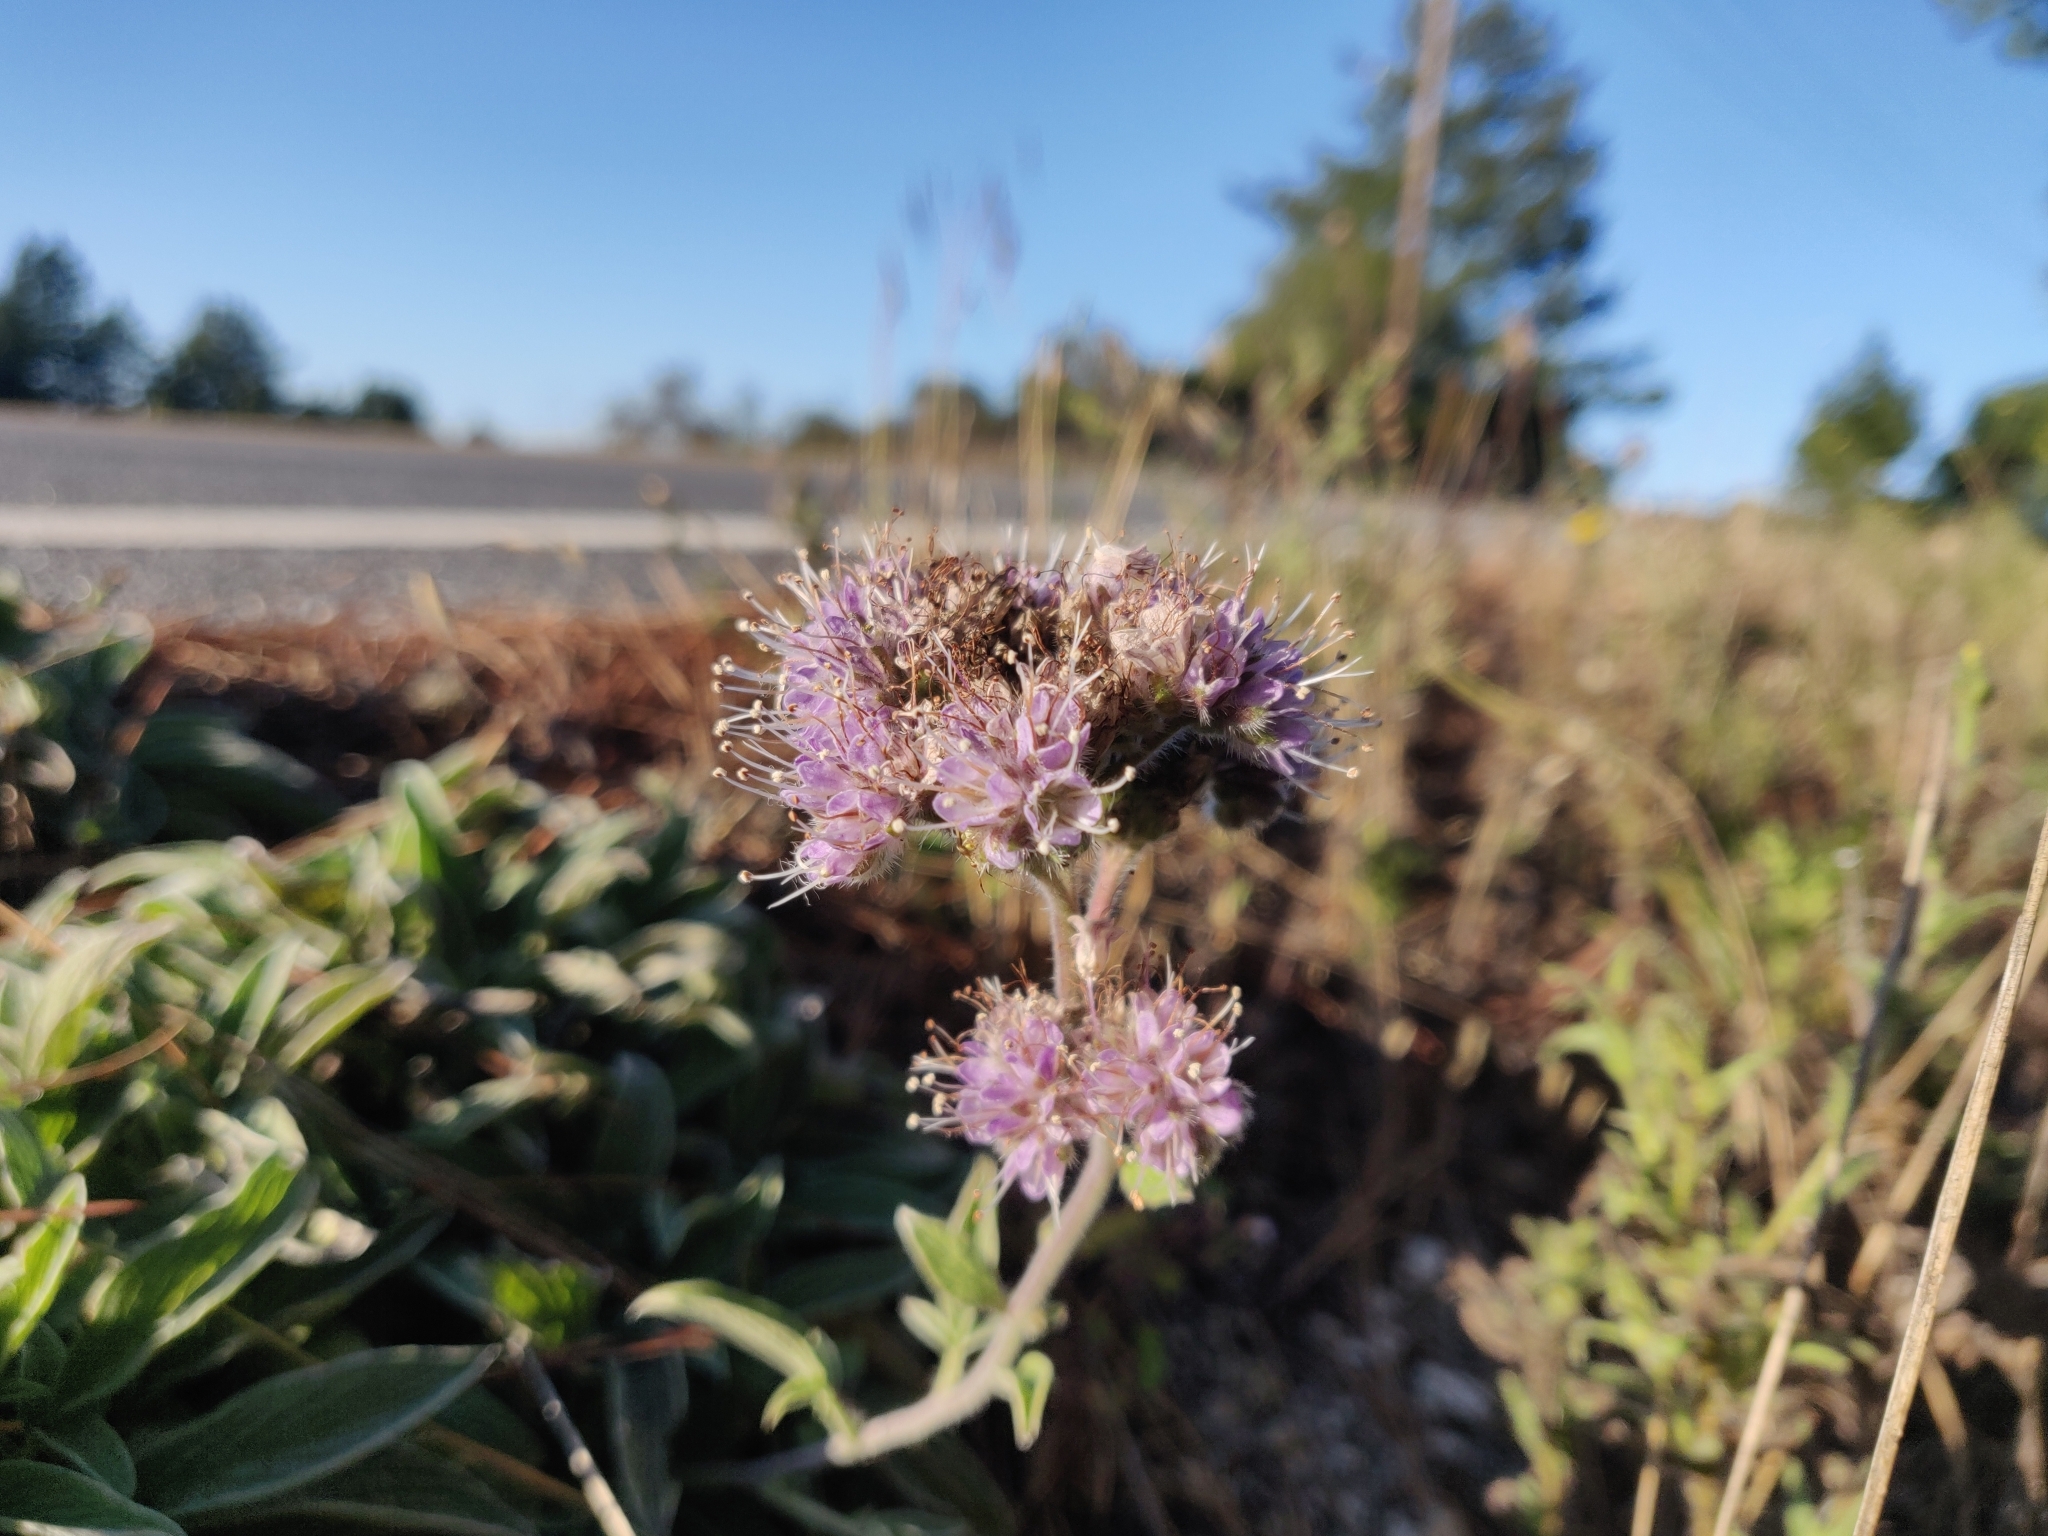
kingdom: Plantae
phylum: Tracheophyta
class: Magnoliopsida
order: Boraginales
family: Hydrophyllaceae
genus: Phacelia
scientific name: Phacelia californica
